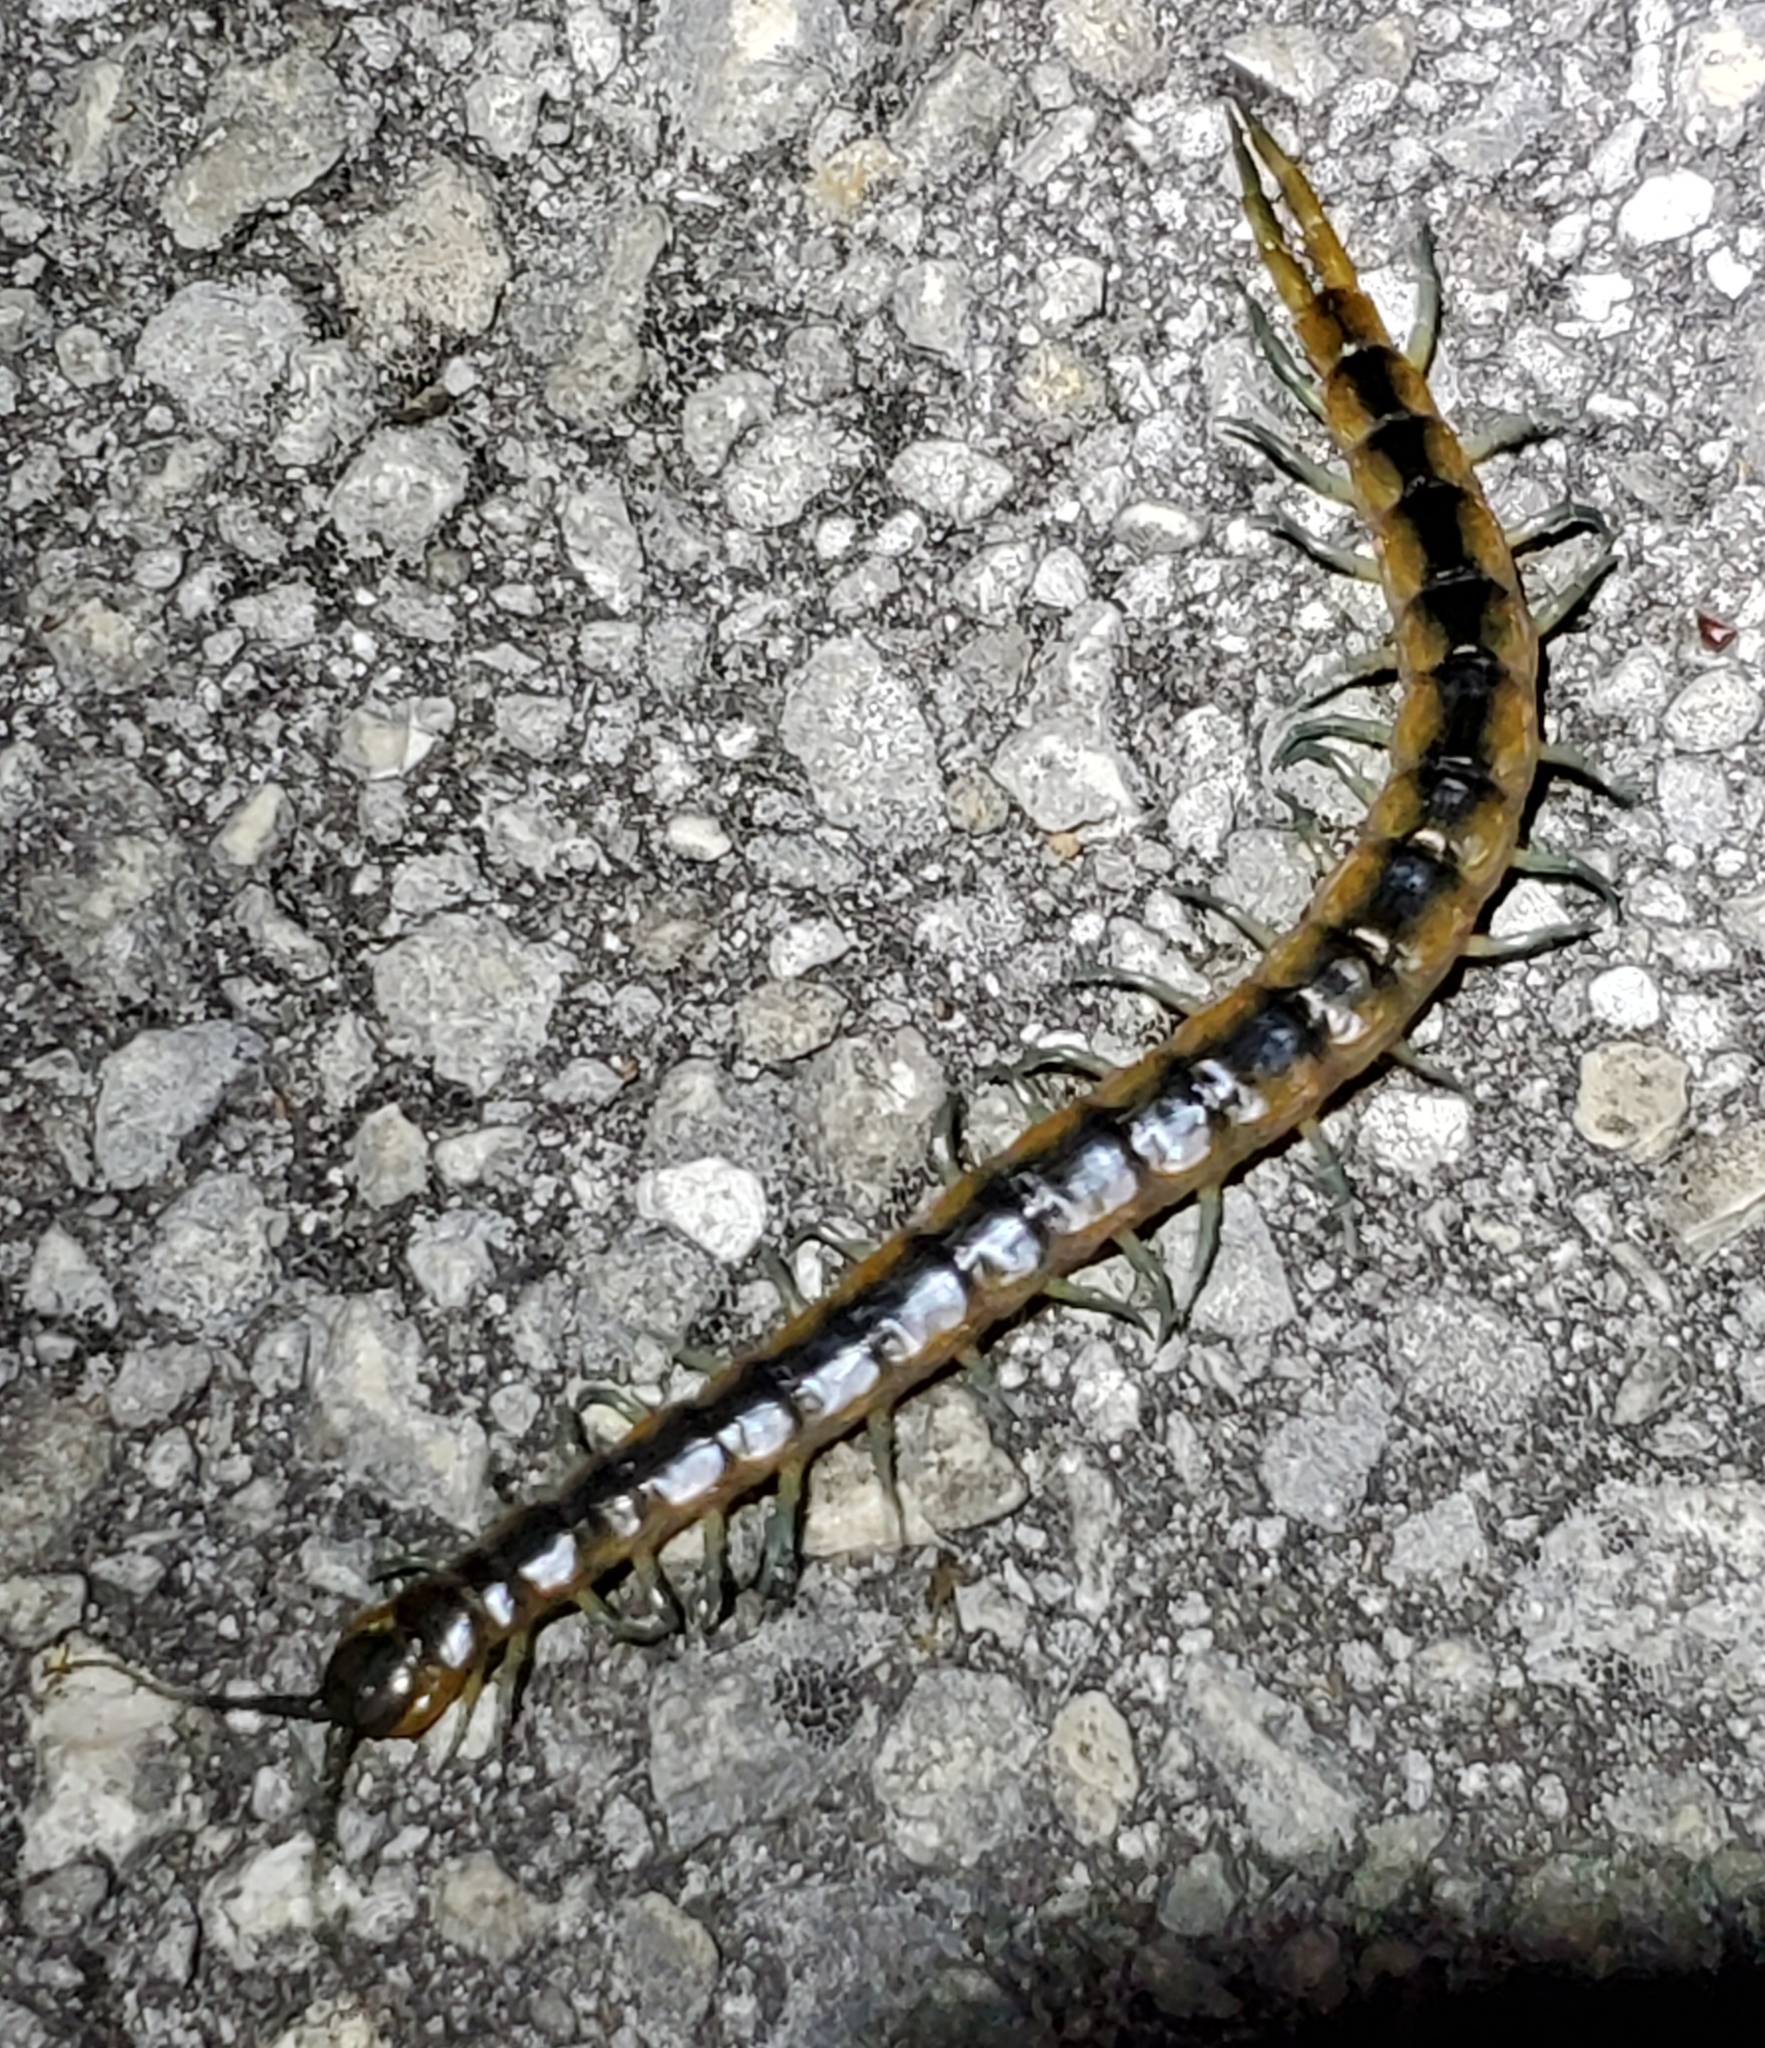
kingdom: Animalia
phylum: Arthropoda
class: Chilopoda
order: Scolopendromorpha
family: Scolopendridae
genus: Scolopendra
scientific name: Scolopendra viridis
